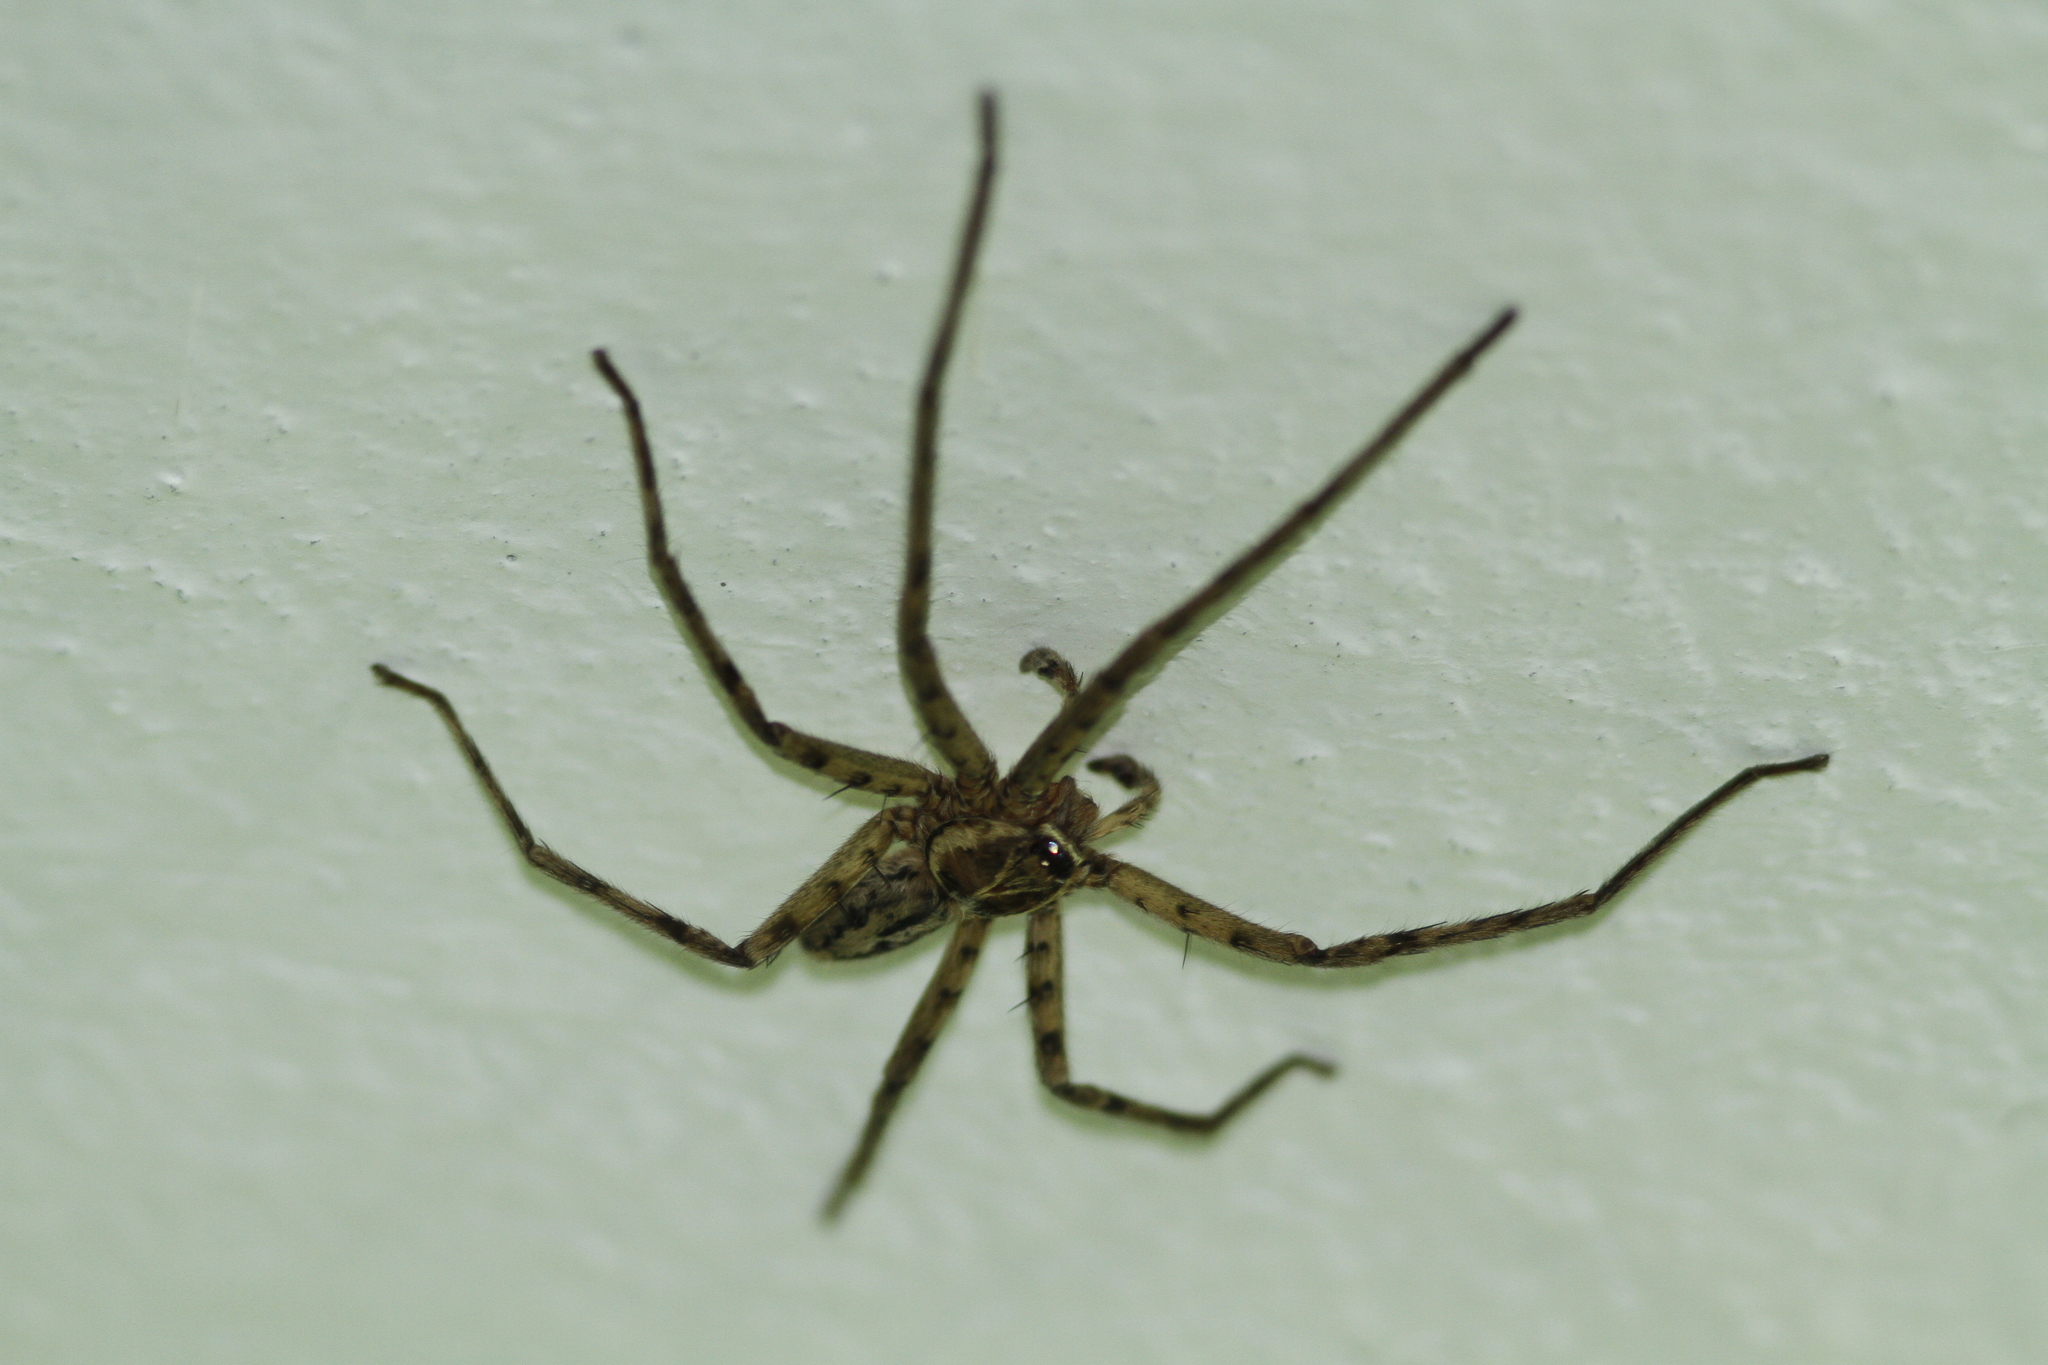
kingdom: Animalia
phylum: Arthropoda
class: Arachnida
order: Araneae
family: Sparassidae
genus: Heteropoda
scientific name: Heteropoda venatoria
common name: Huntsman spider
